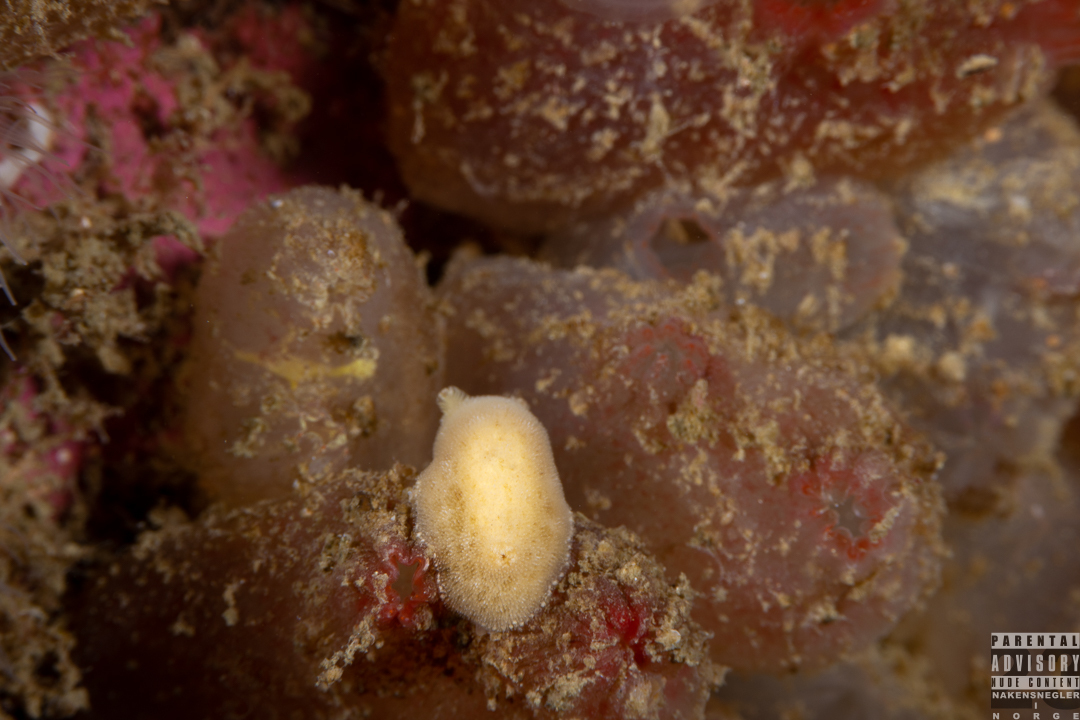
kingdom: Animalia
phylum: Mollusca
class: Gastropoda
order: Nudibranchia
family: Discodorididae
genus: Jorunna
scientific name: Jorunna tomentosa
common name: Grey sea slug
